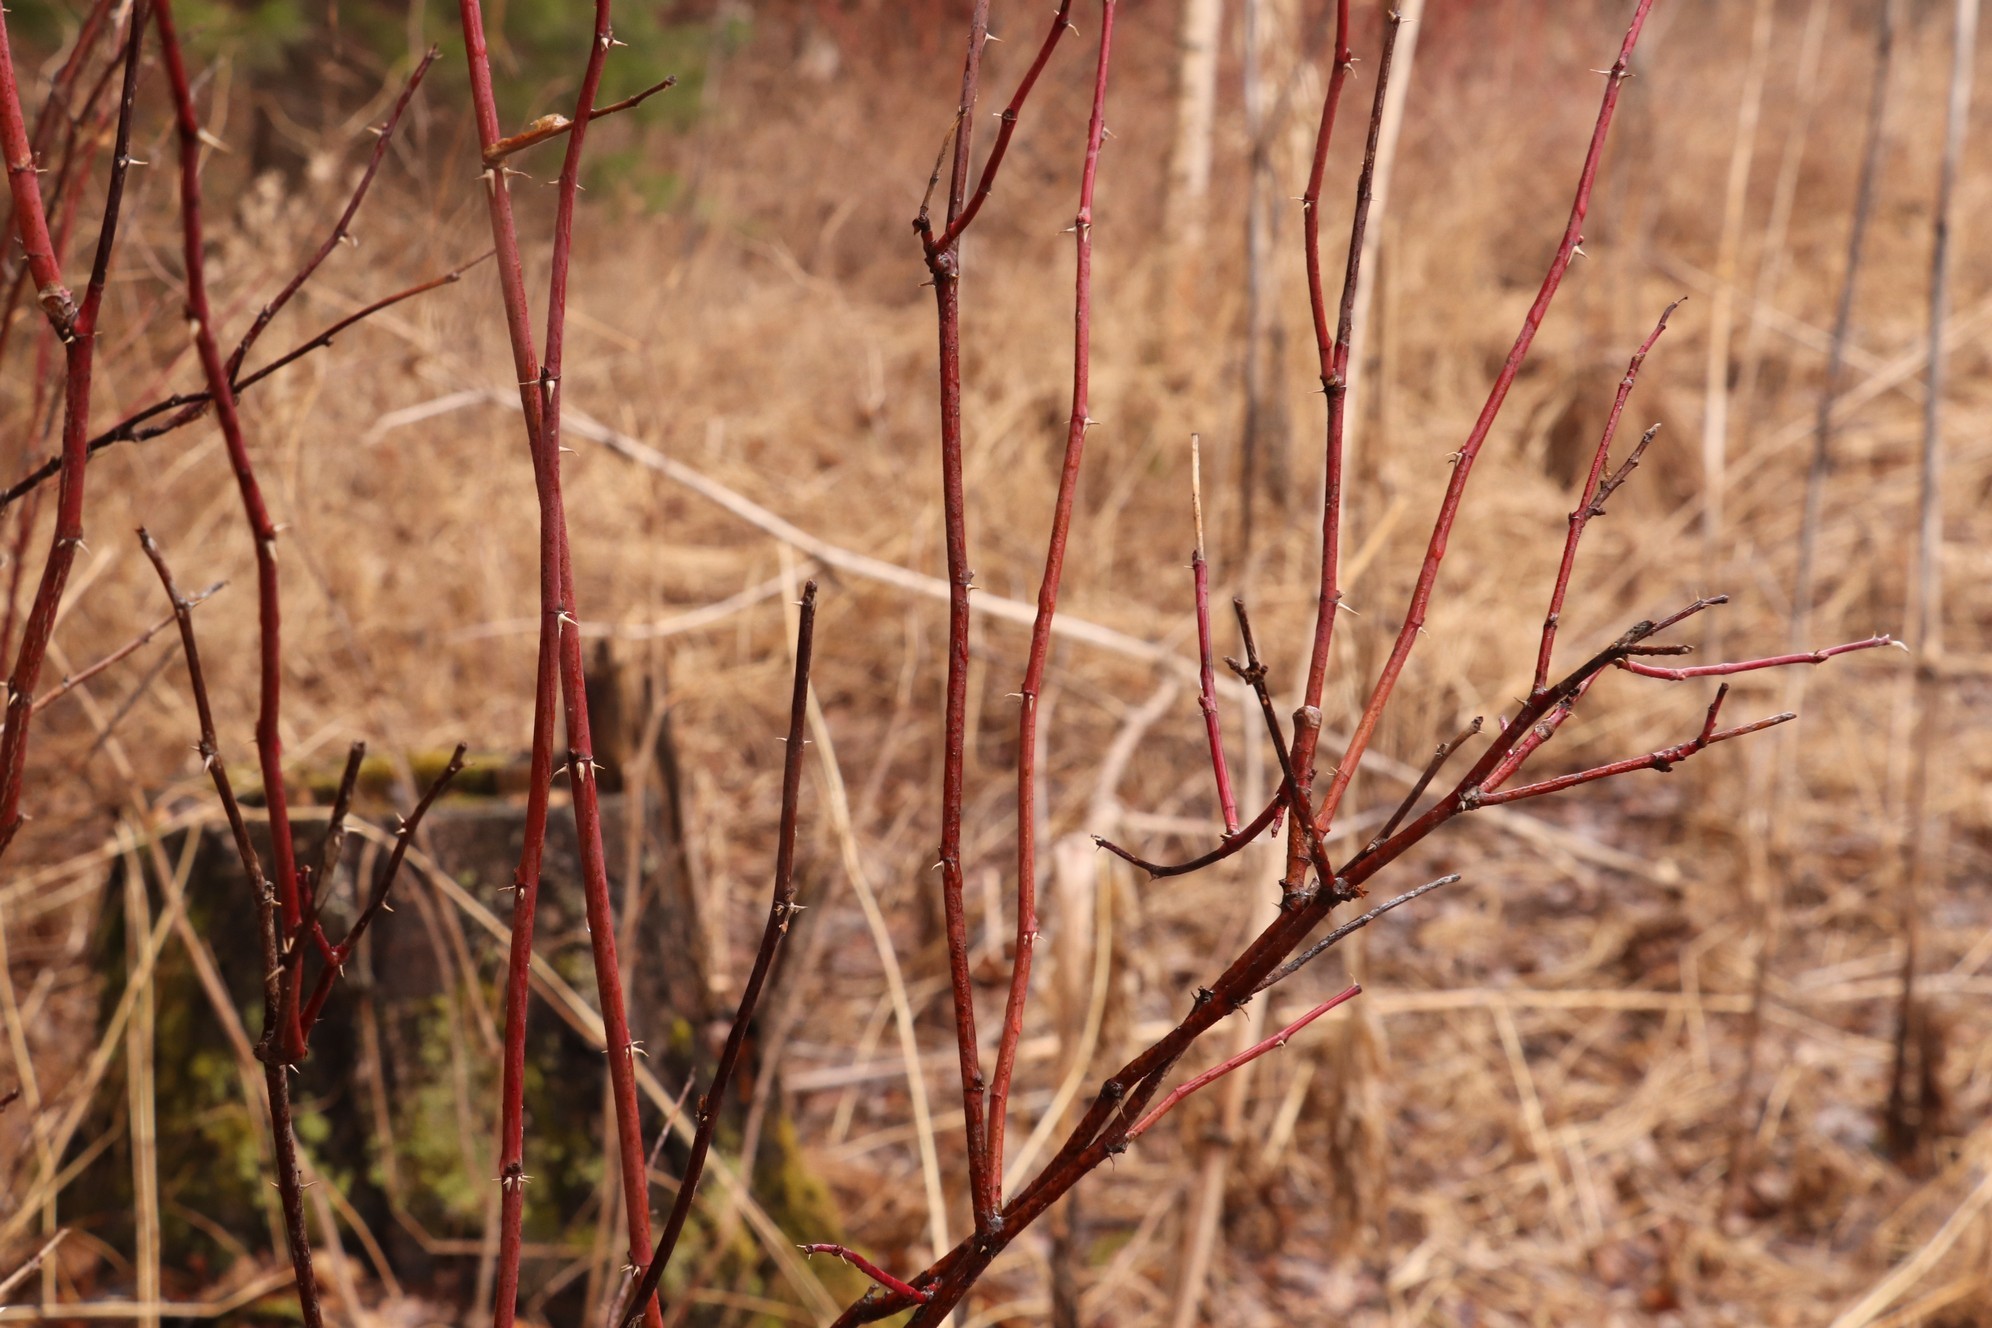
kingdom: Plantae
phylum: Tracheophyta
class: Magnoliopsida
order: Rosales
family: Rosaceae
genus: Rosa
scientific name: Rosa majalis
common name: Cinnamon rose
